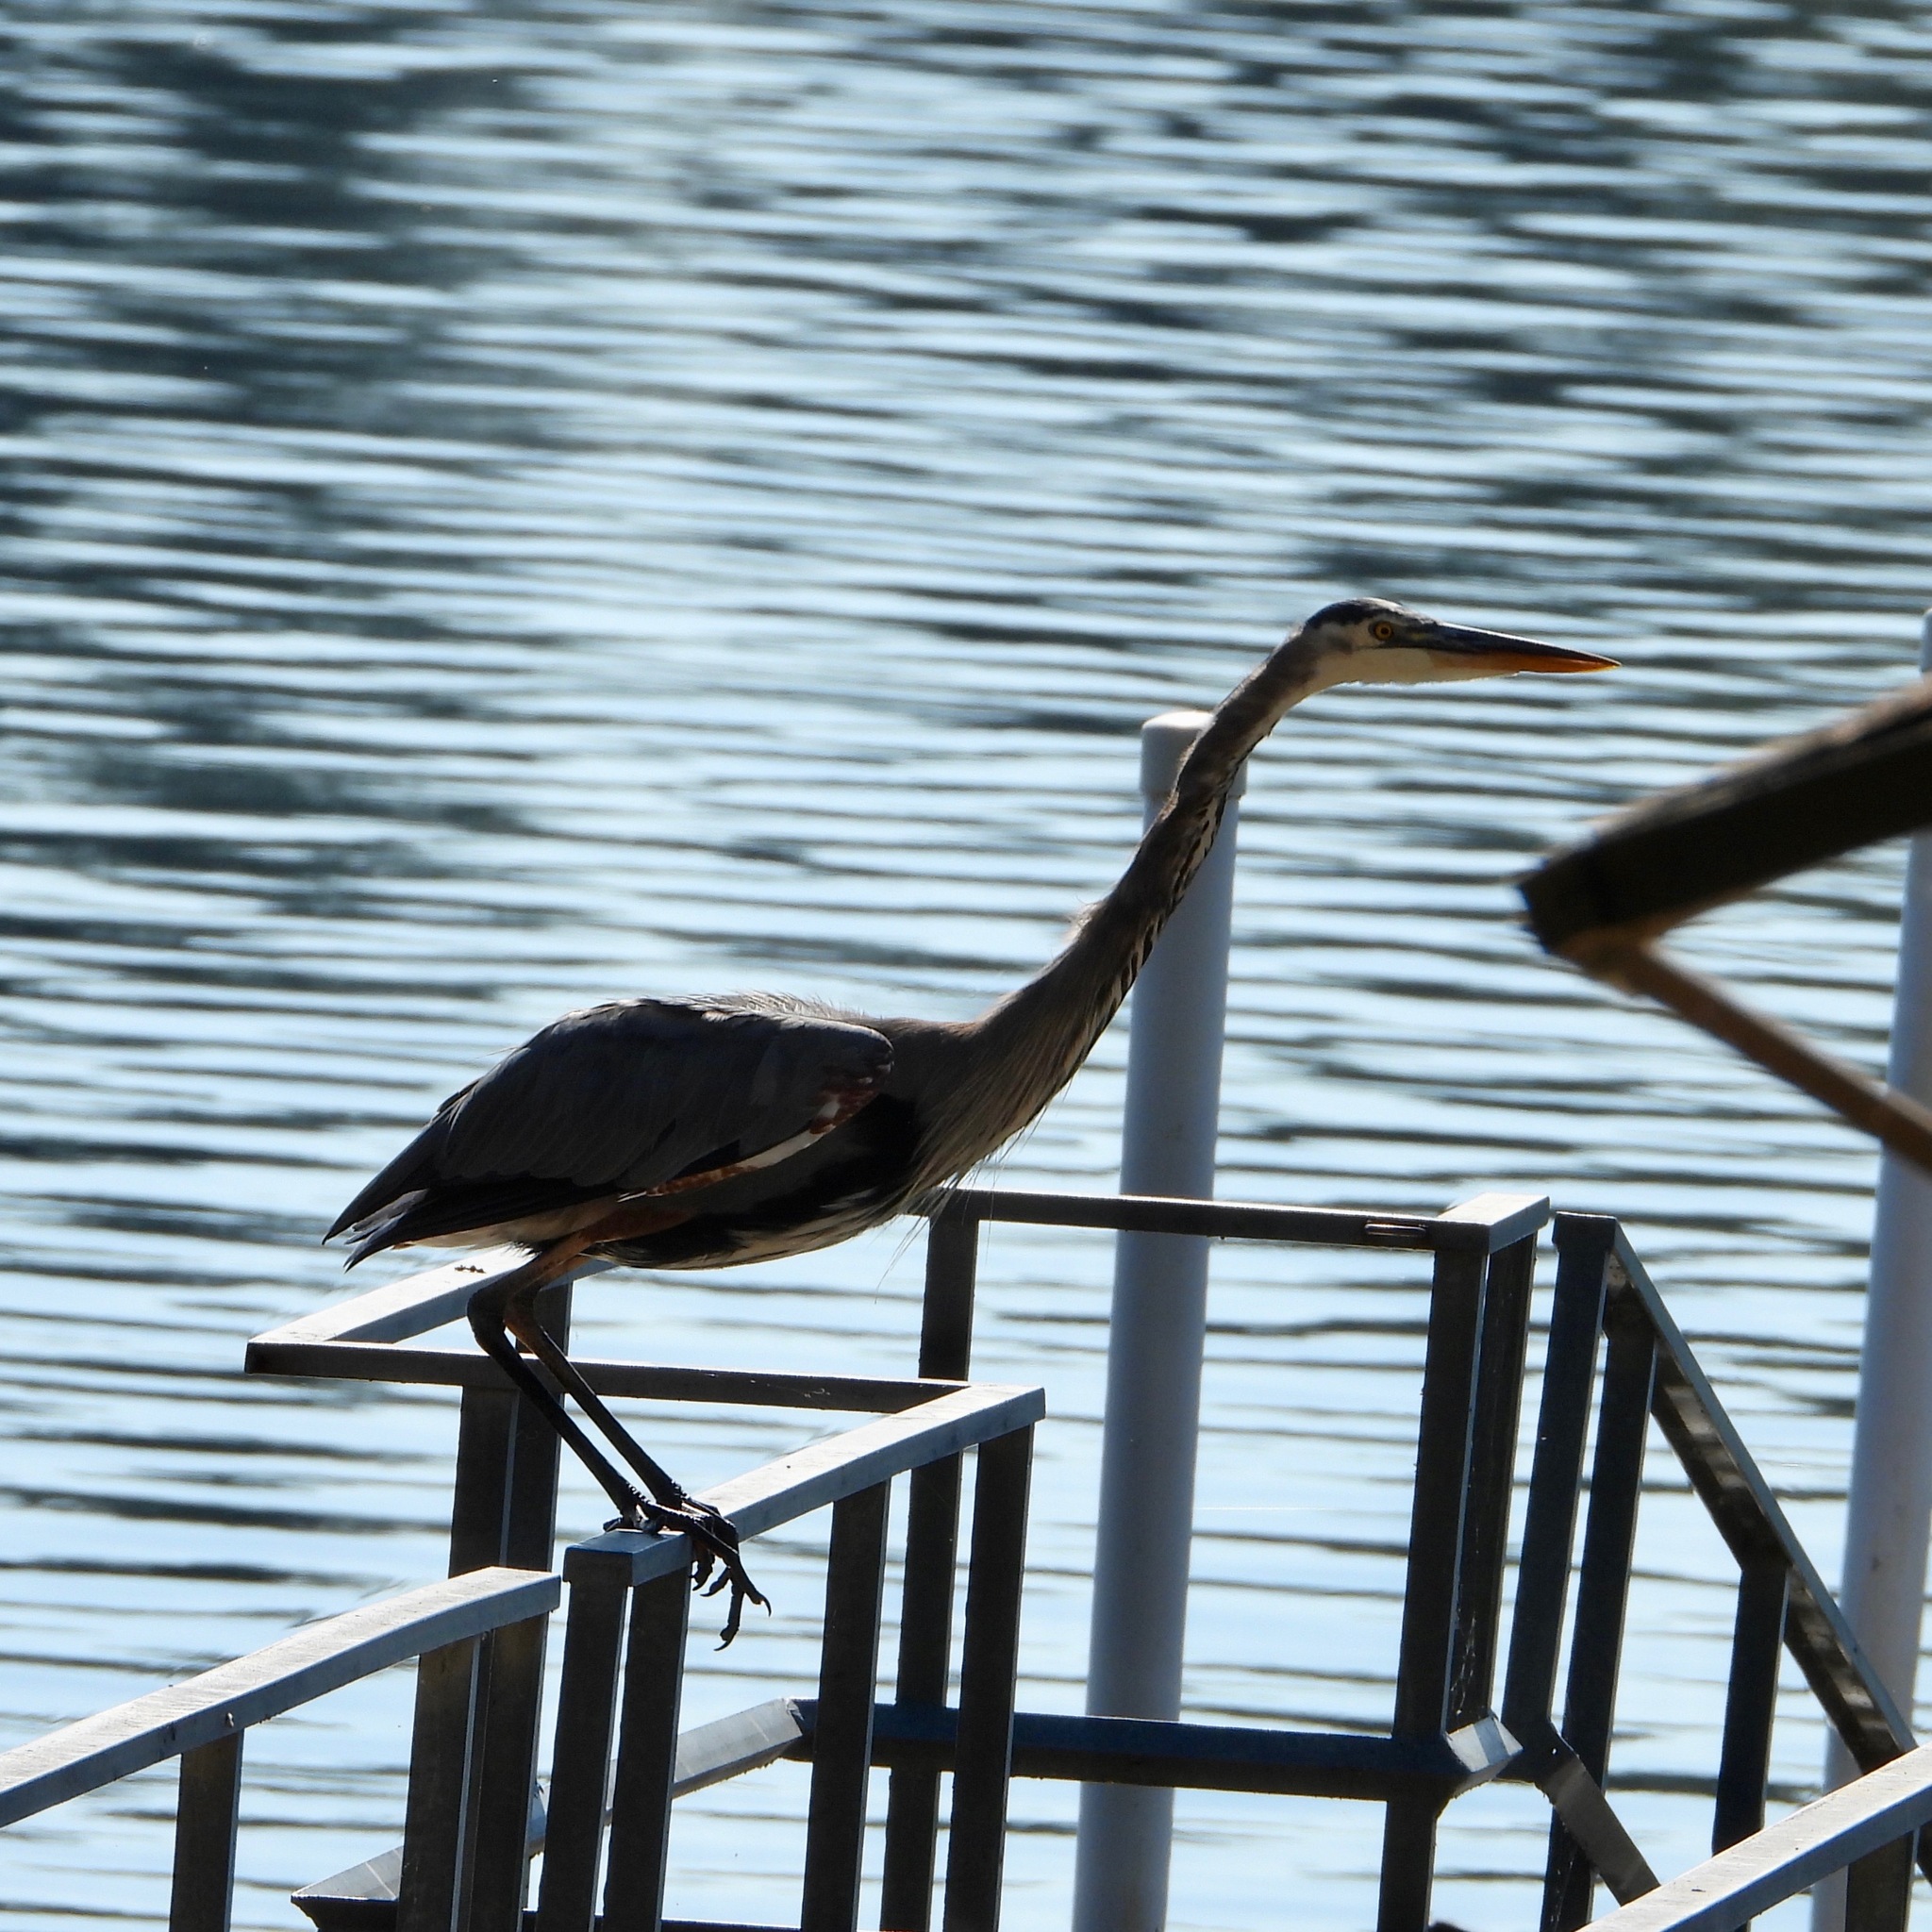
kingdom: Animalia
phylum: Chordata
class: Aves
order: Pelecaniformes
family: Ardeidae
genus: Ardea
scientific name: Ardea herodias
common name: Great blue heron
